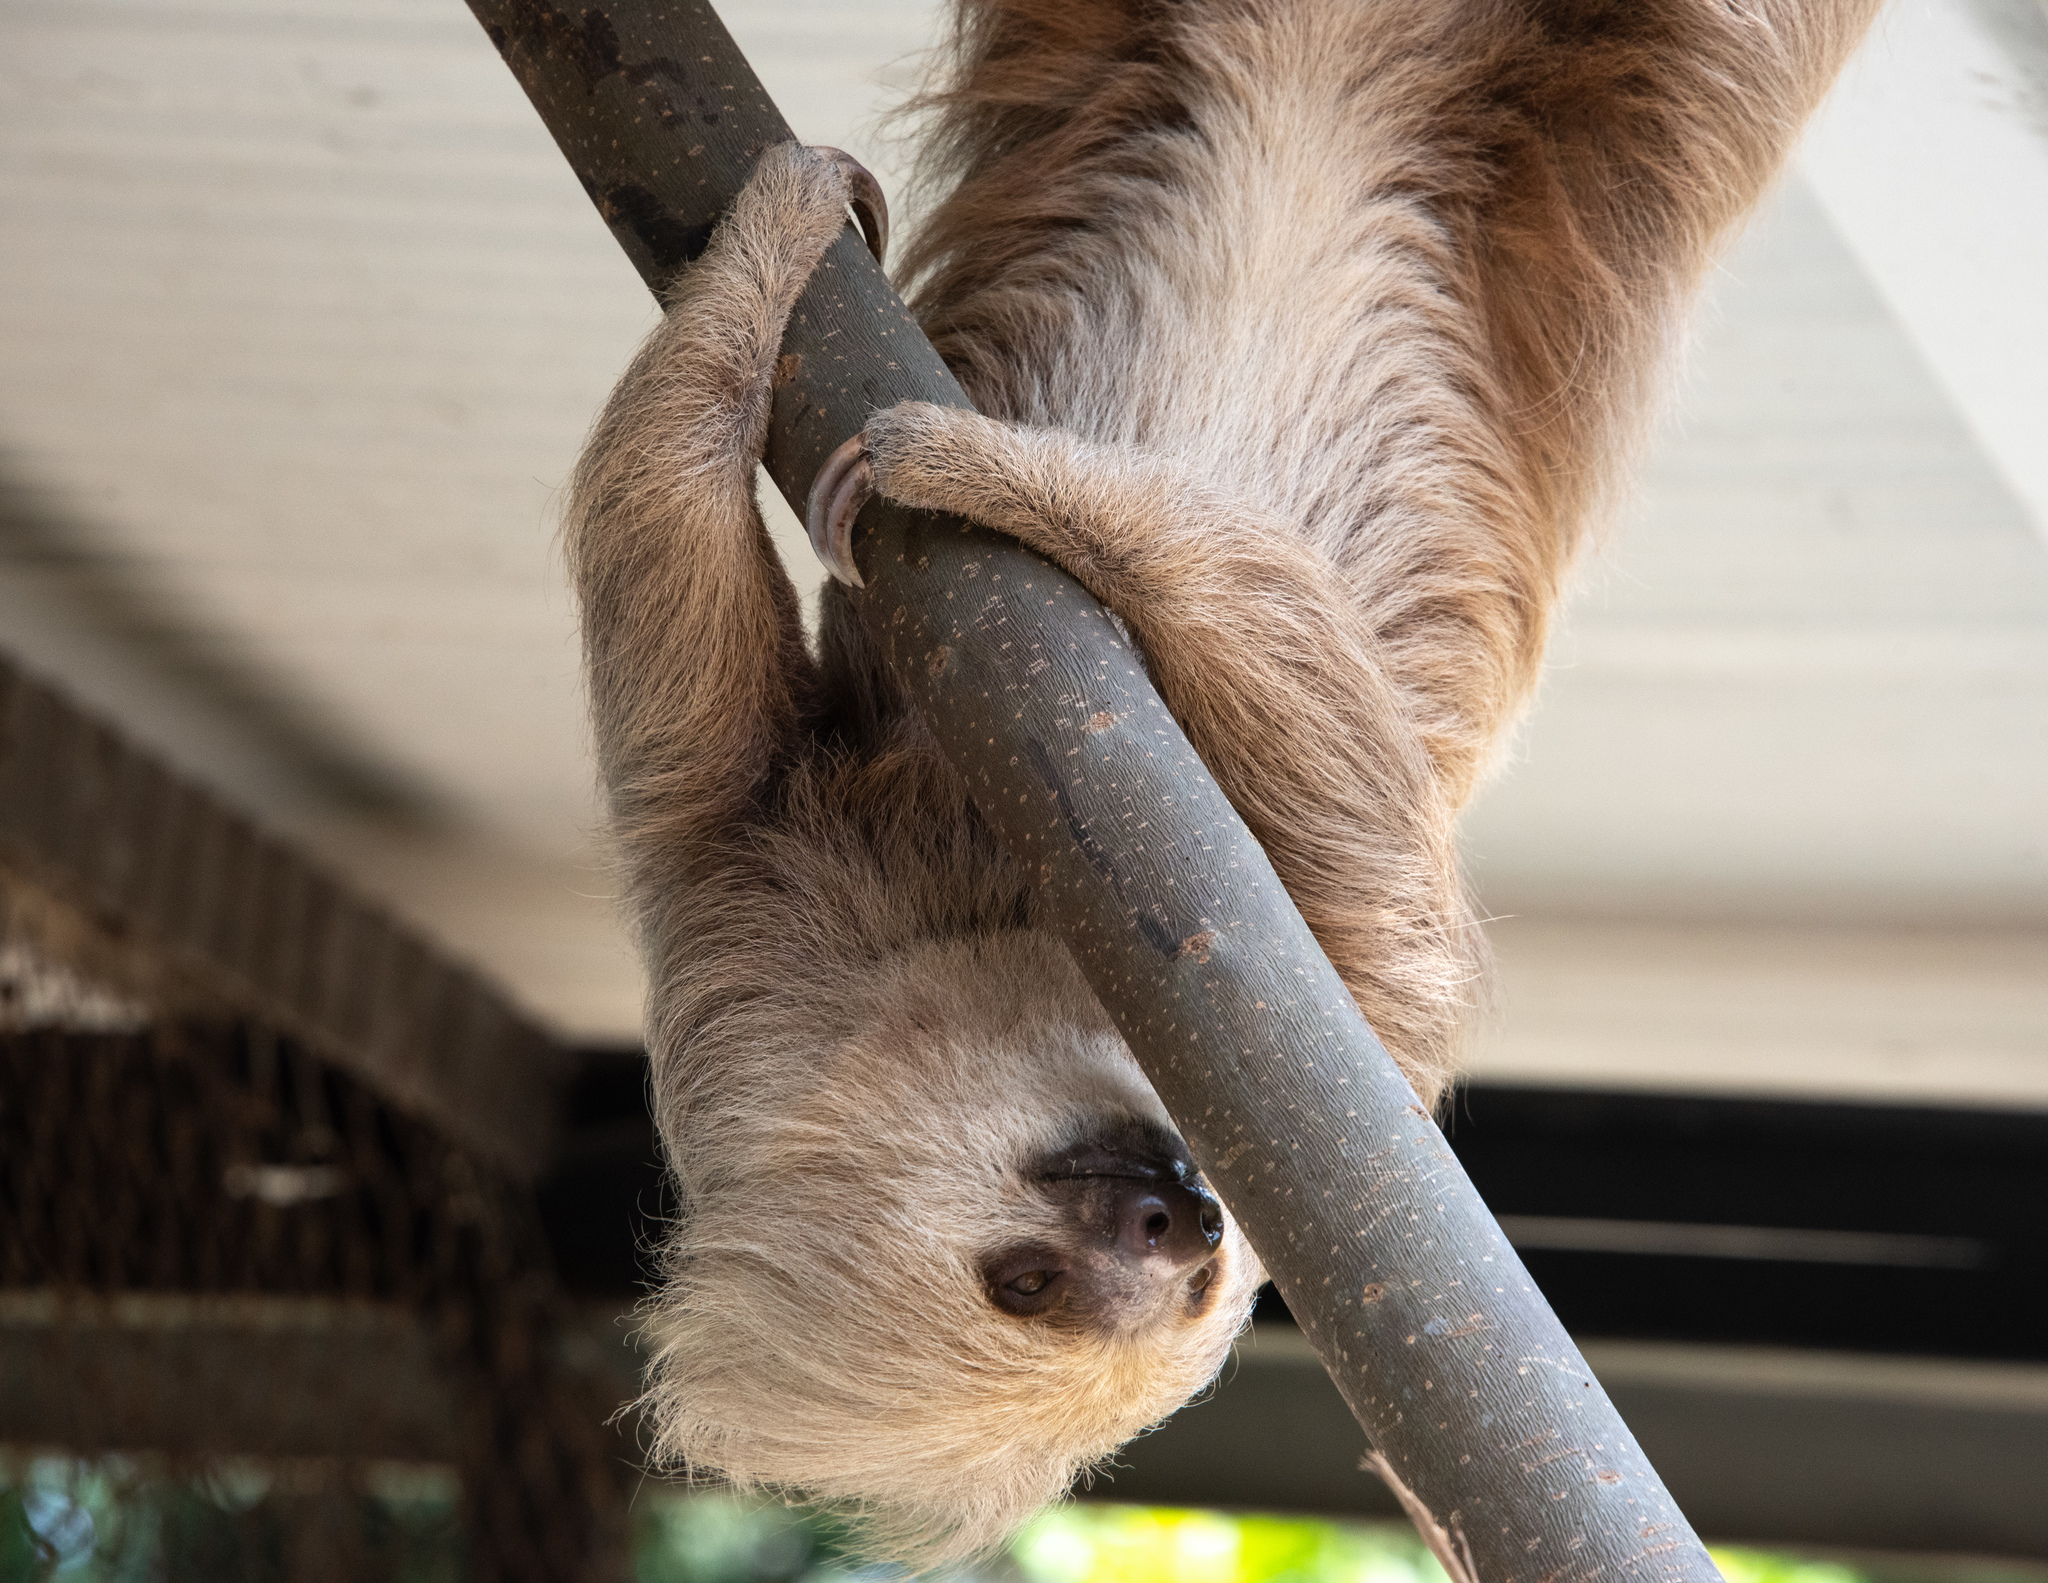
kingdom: Animalia
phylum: Chordata
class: Mammalia
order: Pilosa
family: Megalonychidae
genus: Choloepus
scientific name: Choloepus hoffmanni
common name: Hoffmann's two-toed sloth
